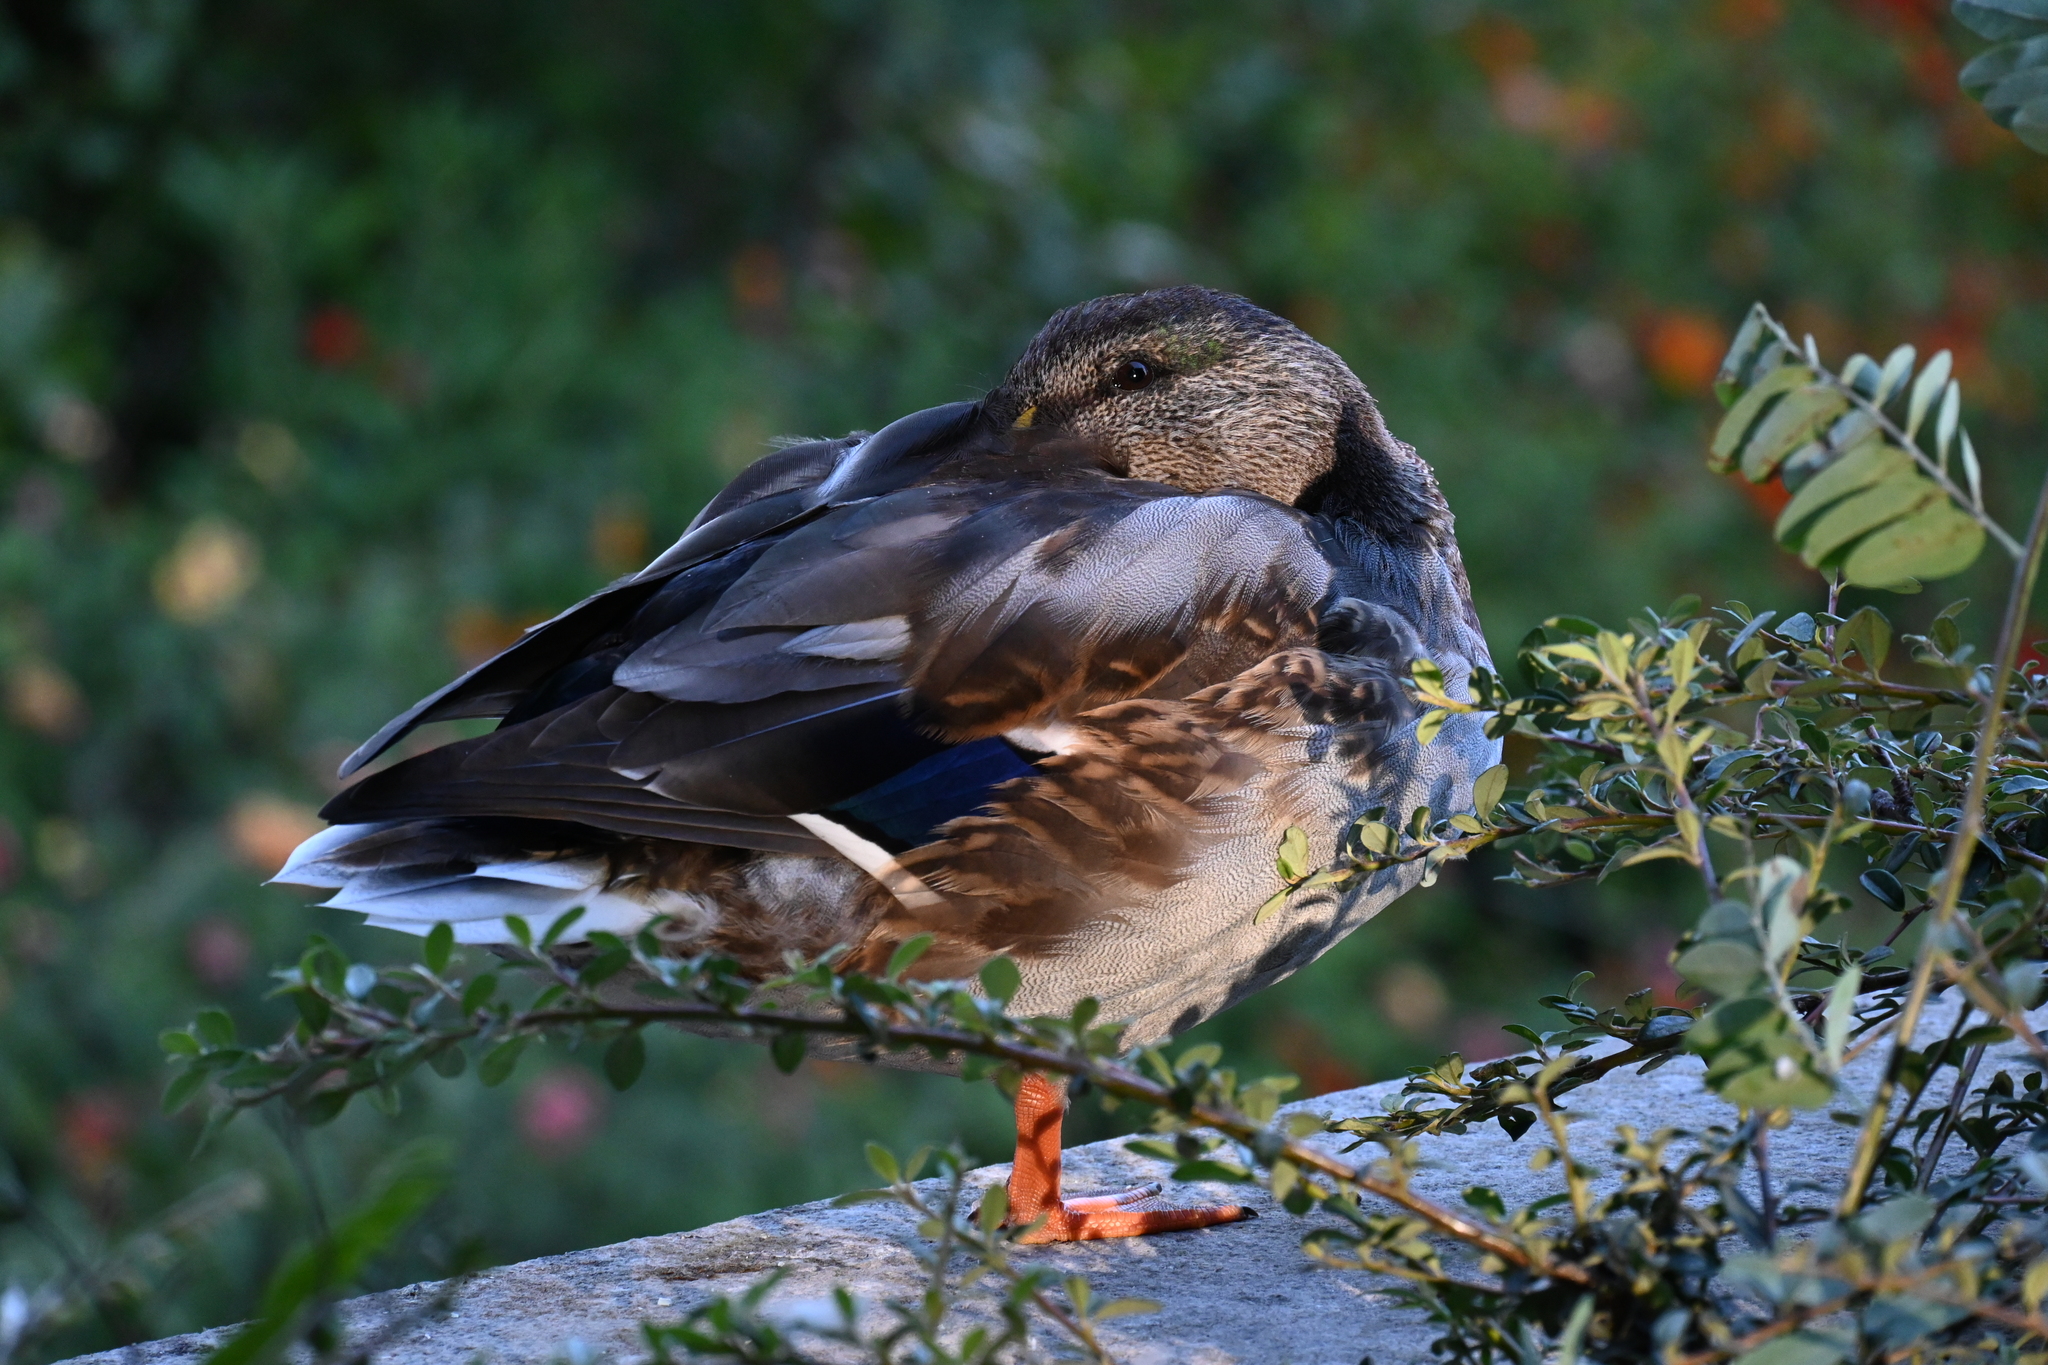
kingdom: Animalia
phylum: Chordata
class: Aves
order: Anseriformes
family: Anatidae
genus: Anas
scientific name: Anas platyrhynchos
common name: Mallard
